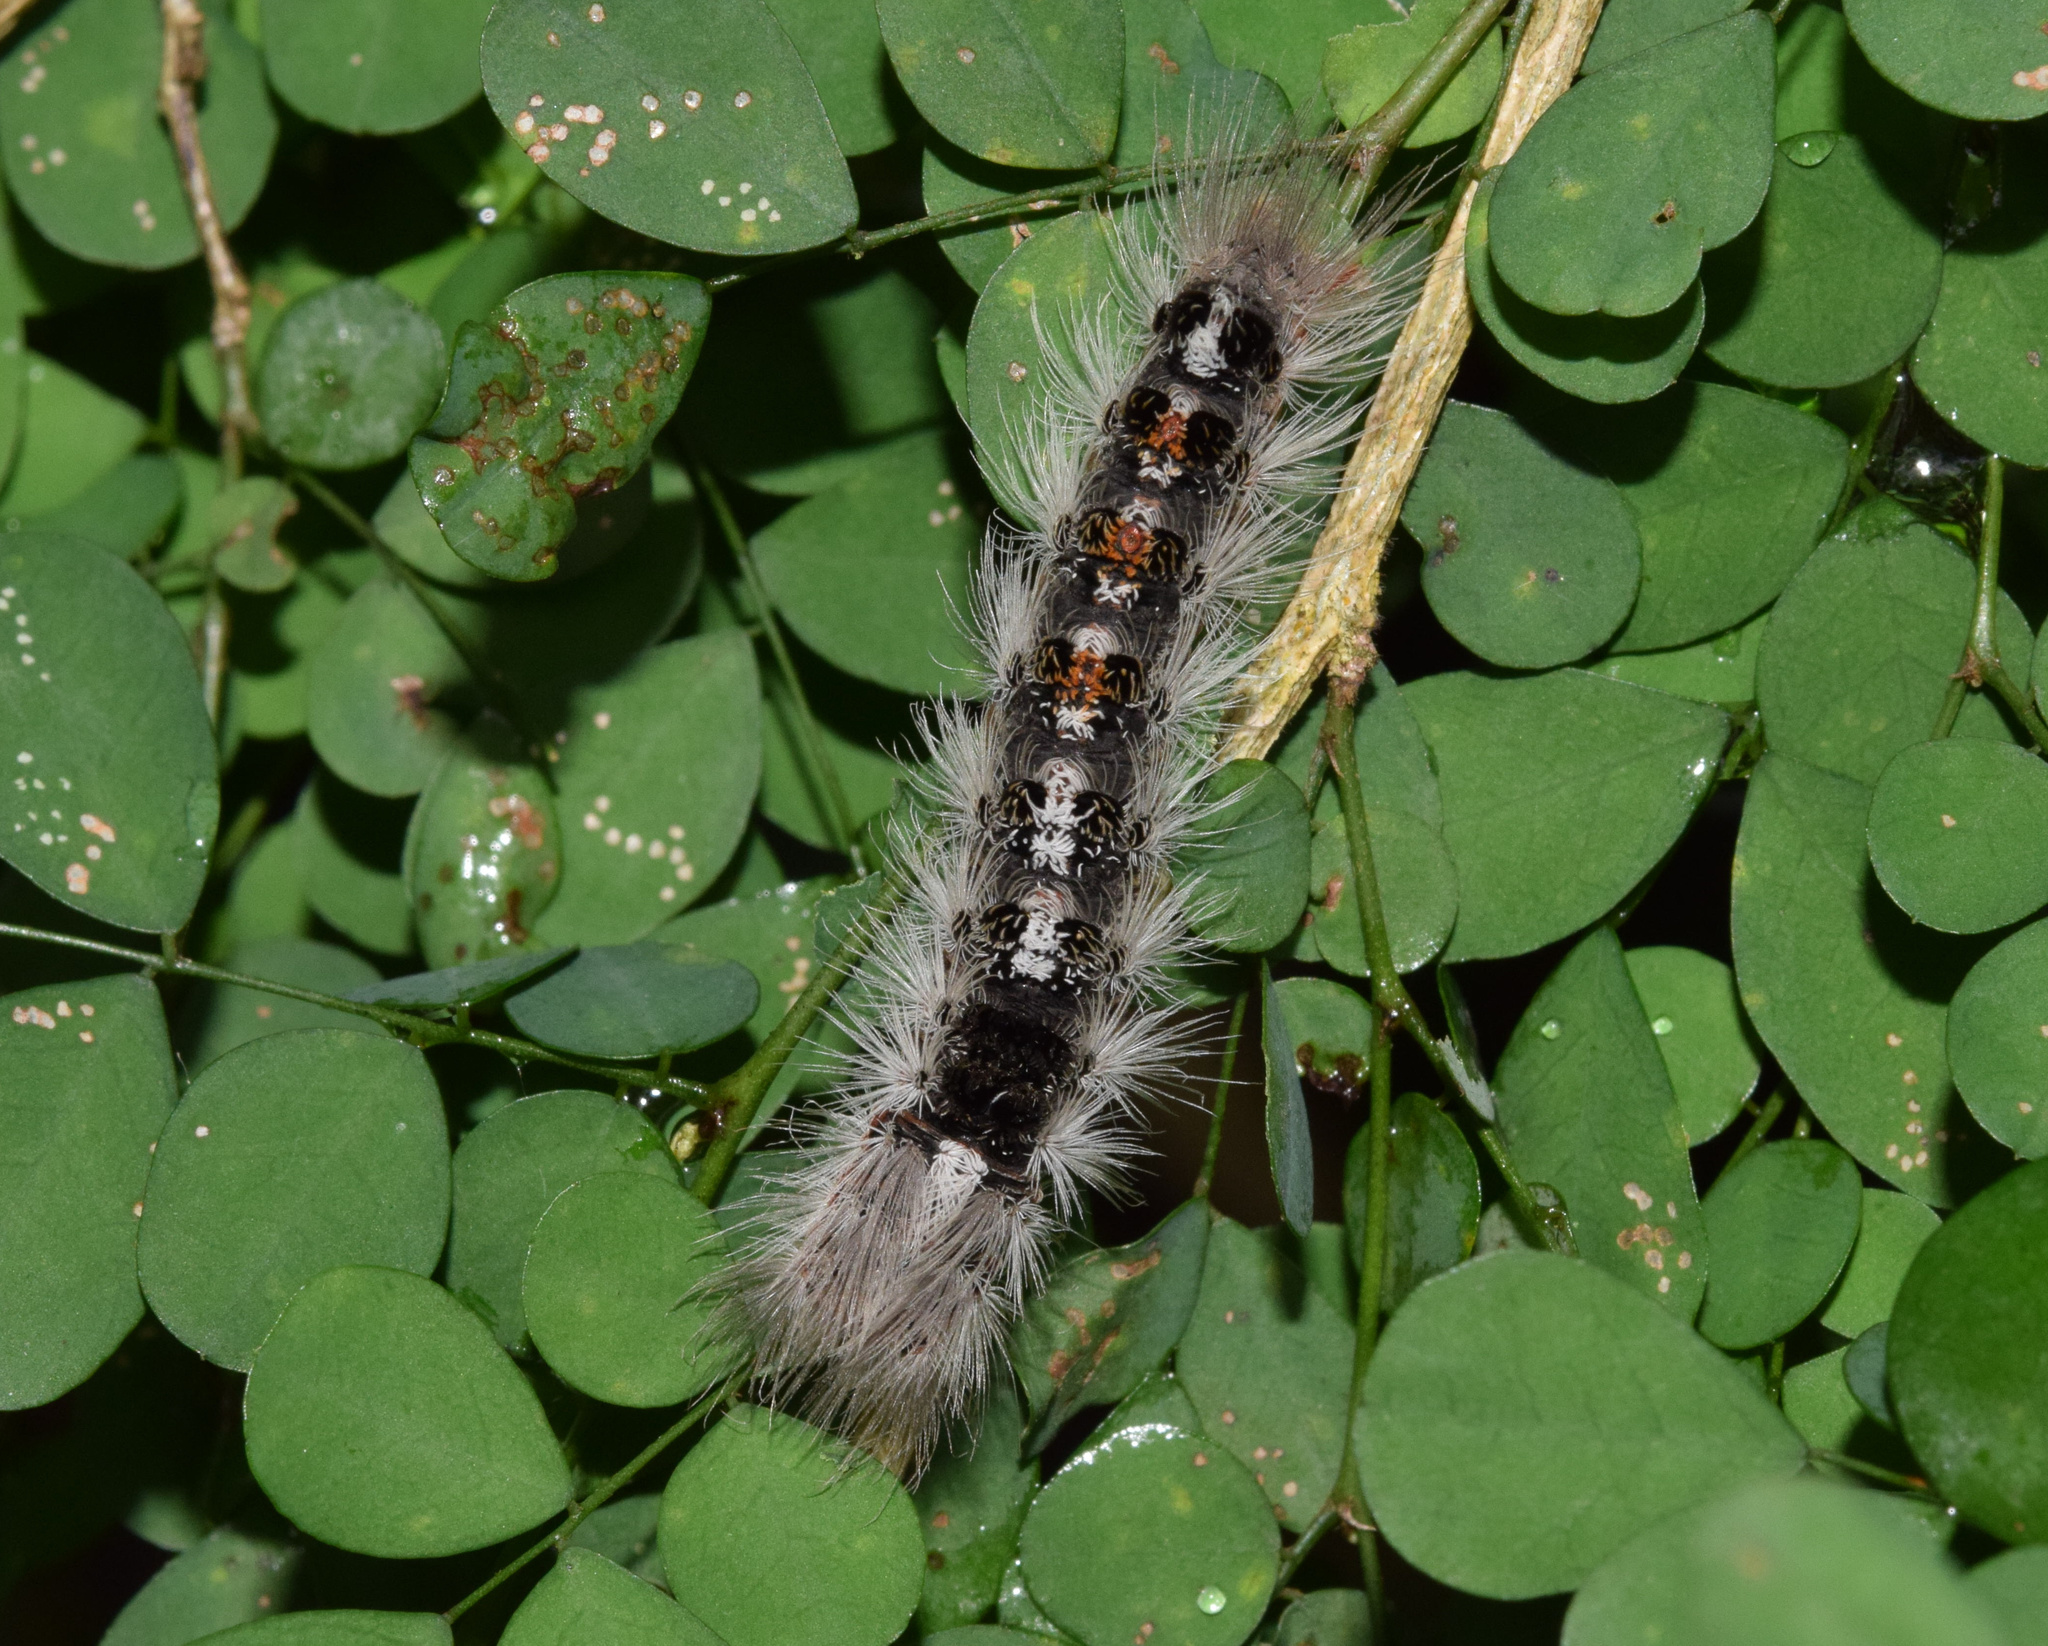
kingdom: Animalia
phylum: Arthropoda
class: Insecta
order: Lepidoptera
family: Erebidae
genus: Euproctis
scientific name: Euproctis punctifera
